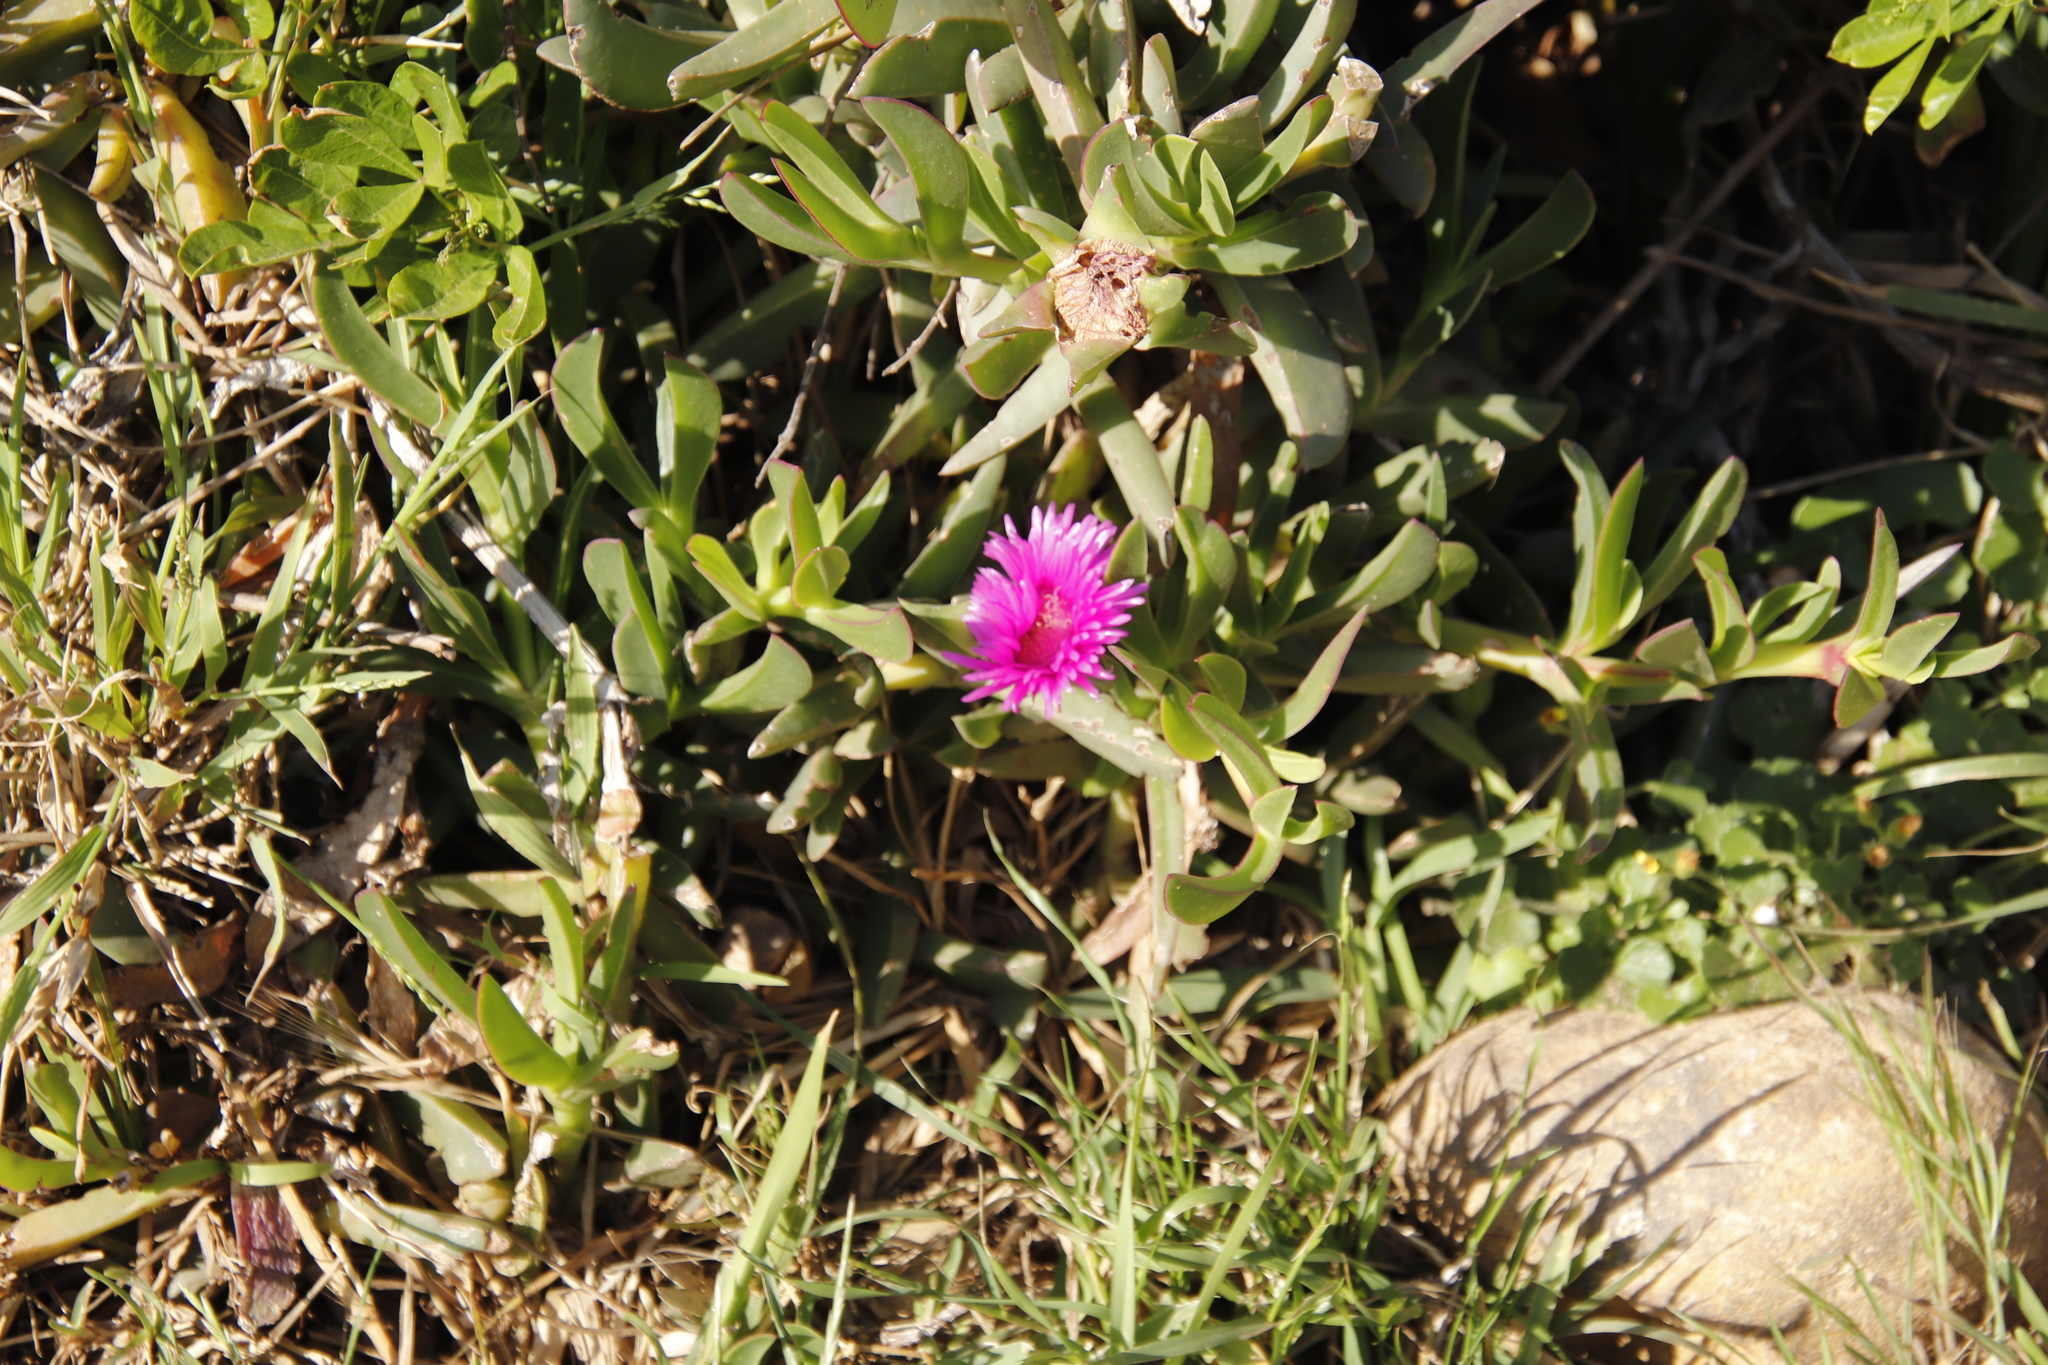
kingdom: Plantae
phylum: Tracheophyta
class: Magnoliopsida
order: Caryophyllales
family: Aizoaceae
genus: Carpobrotus
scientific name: Carpobrotus acinaciformis
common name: Sally-my-handsome
